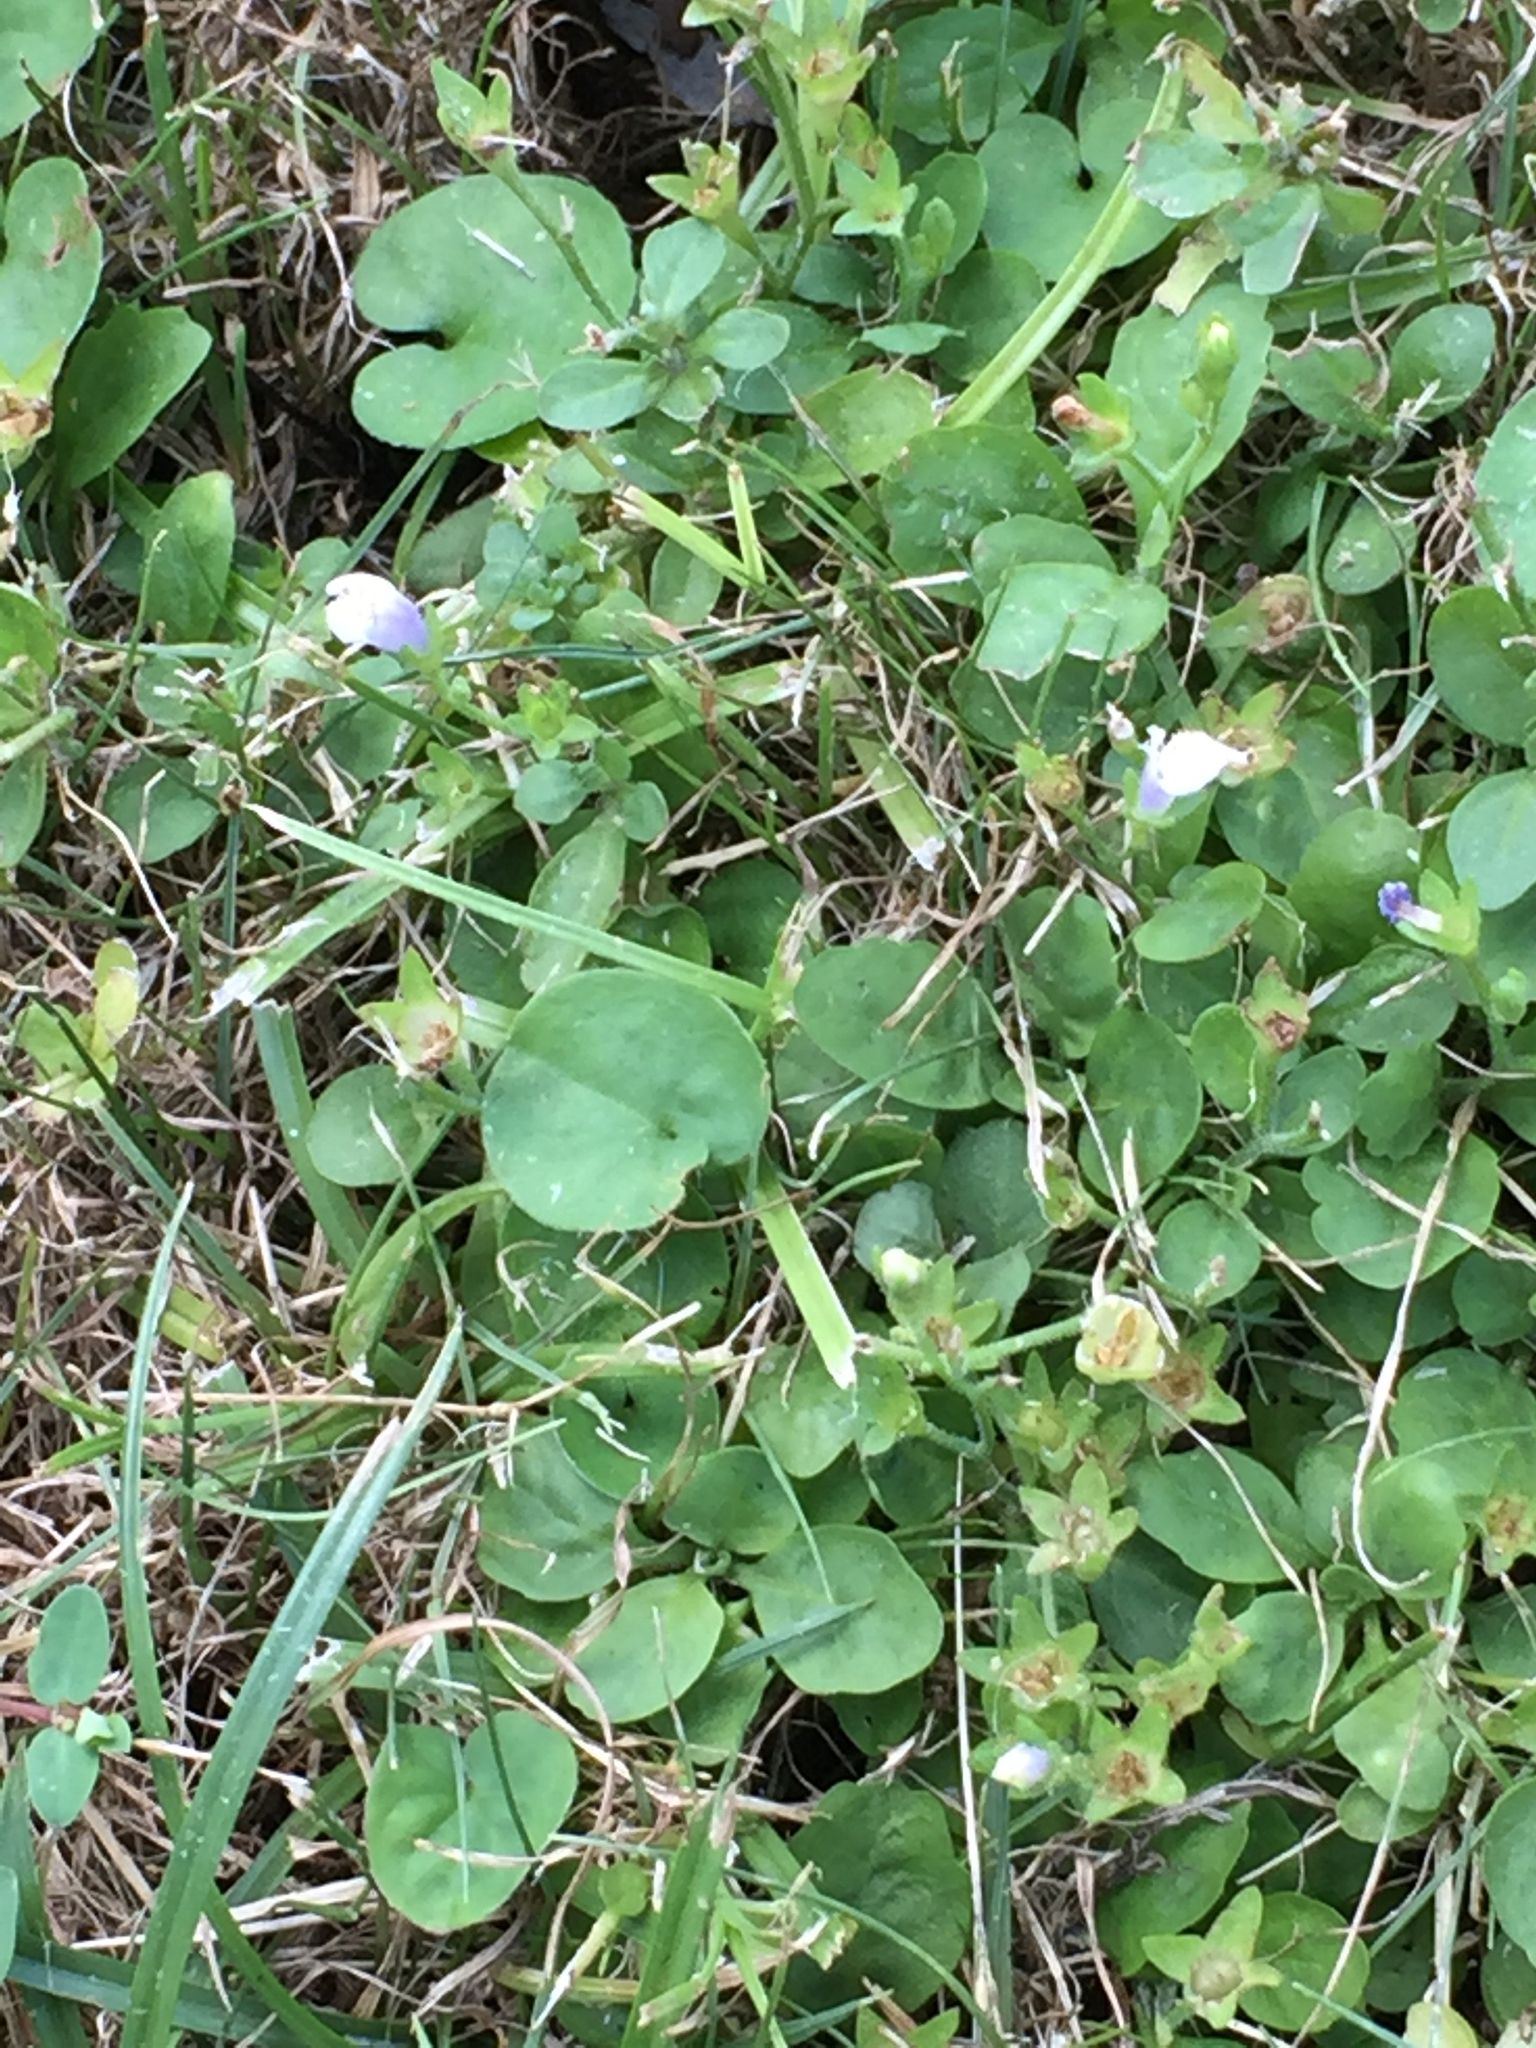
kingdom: Plantae
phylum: Tracheophyta
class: Magnoliopsida
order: Lamiales
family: Mazaceae
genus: Mazus
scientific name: Mazus pumilus
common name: Japanese mazus
